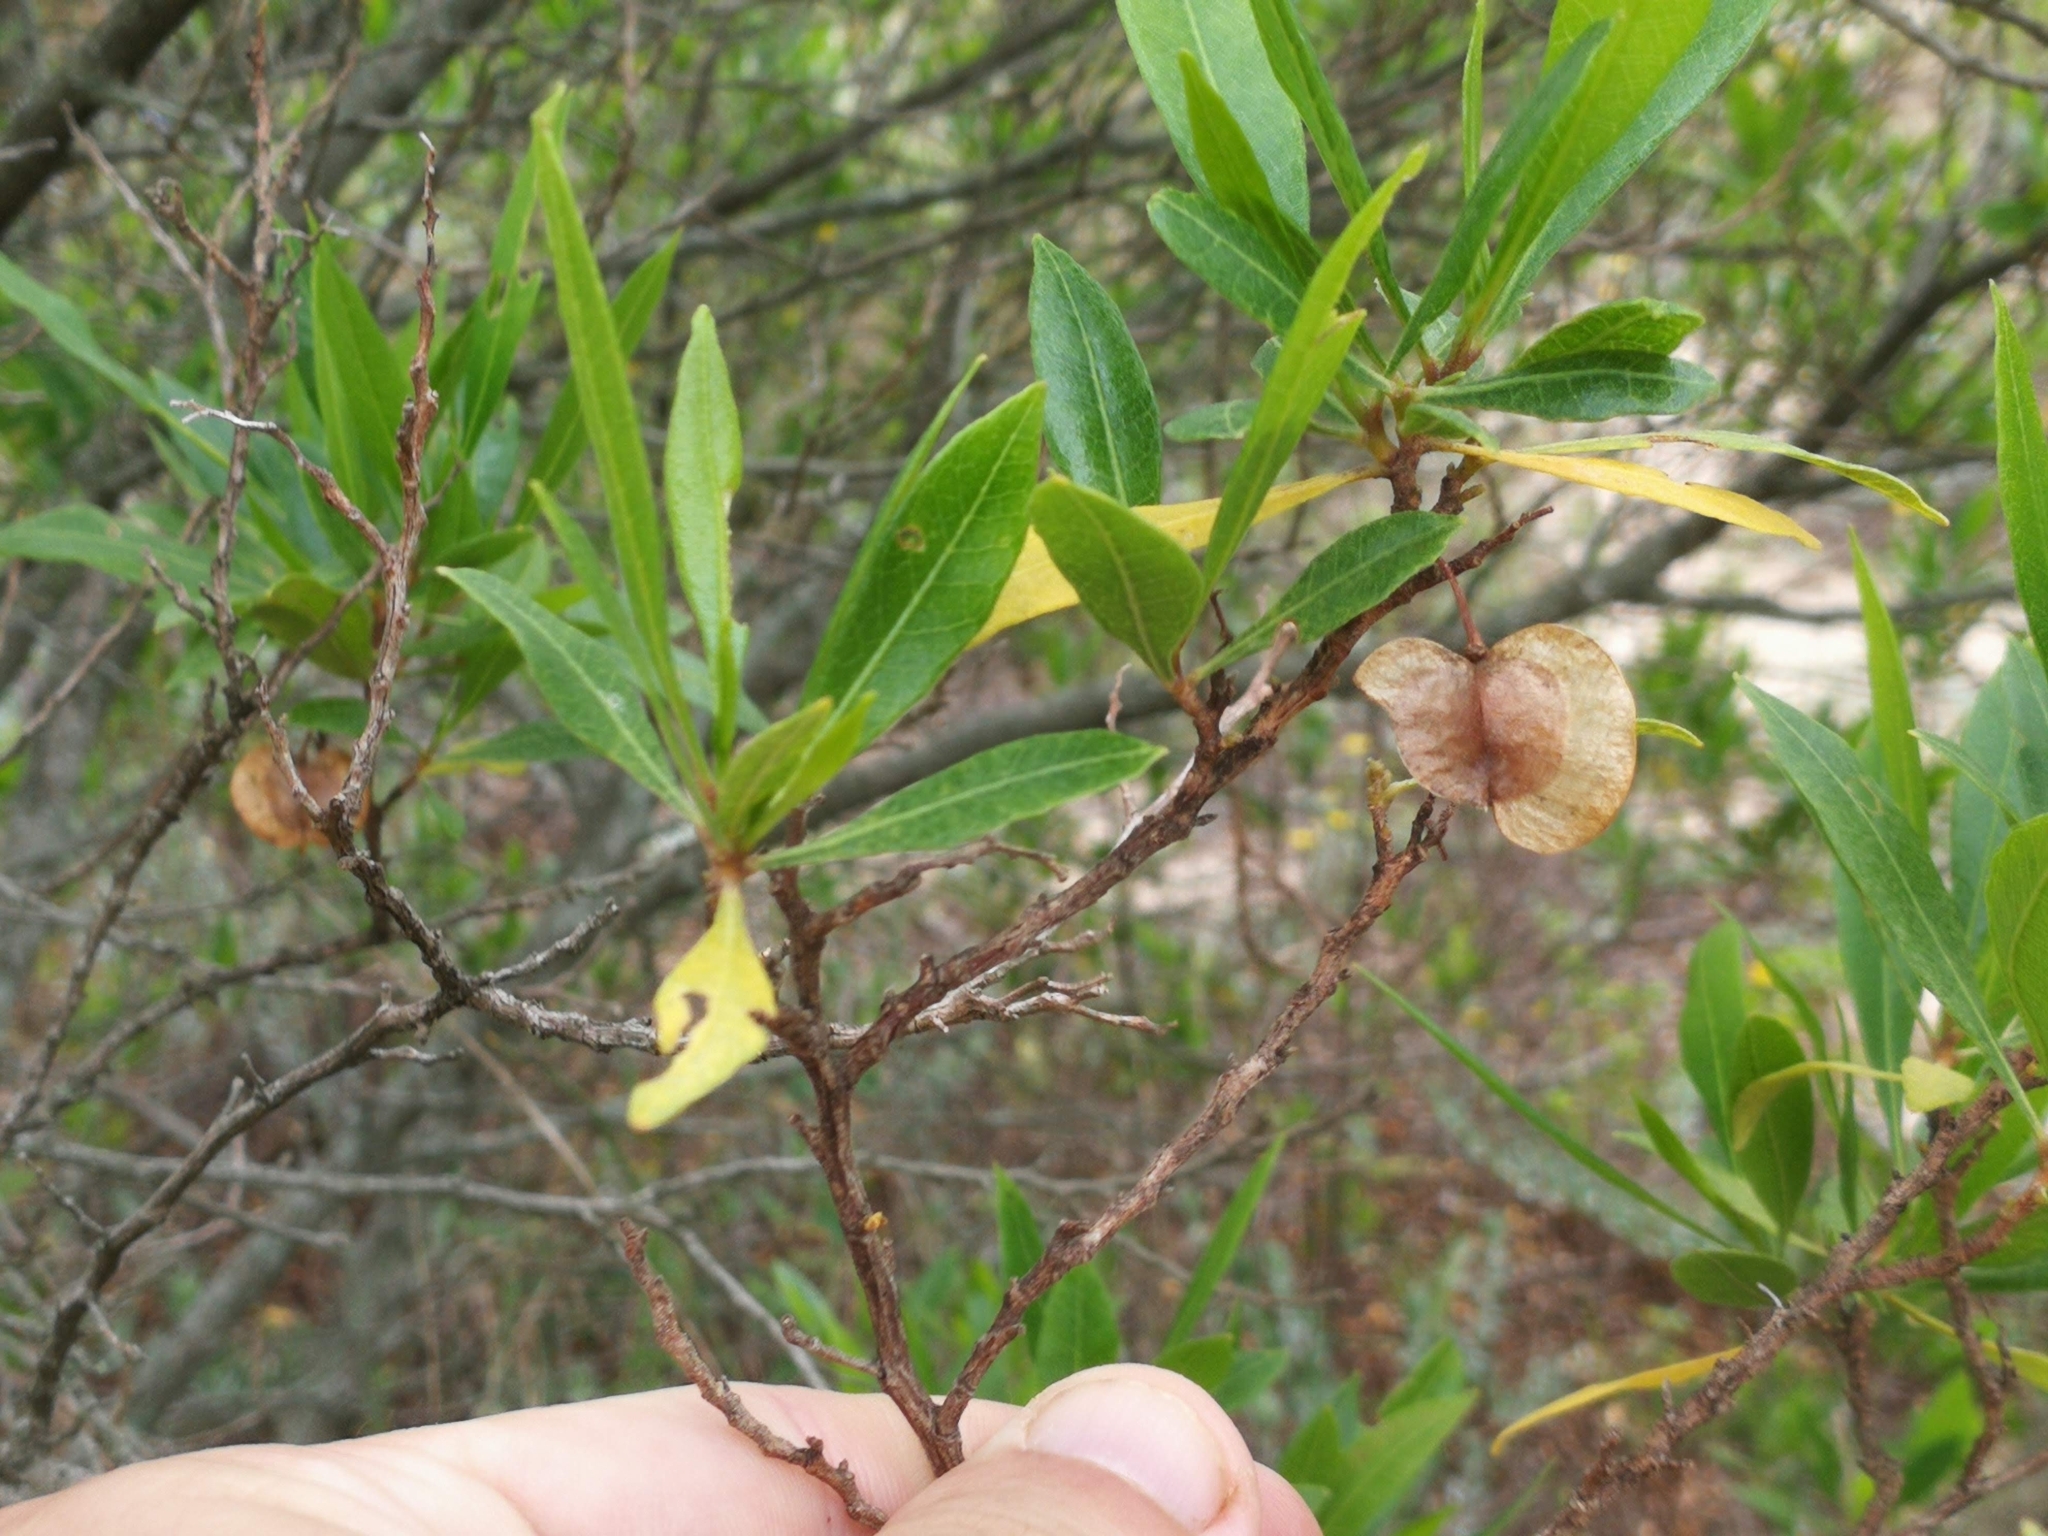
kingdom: Plantae
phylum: Tracheophyta
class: Magnoliopsida
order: Sapindales
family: Sapindaceae
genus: Dodonaea
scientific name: Dodonaea viscosa
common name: Hopbush
